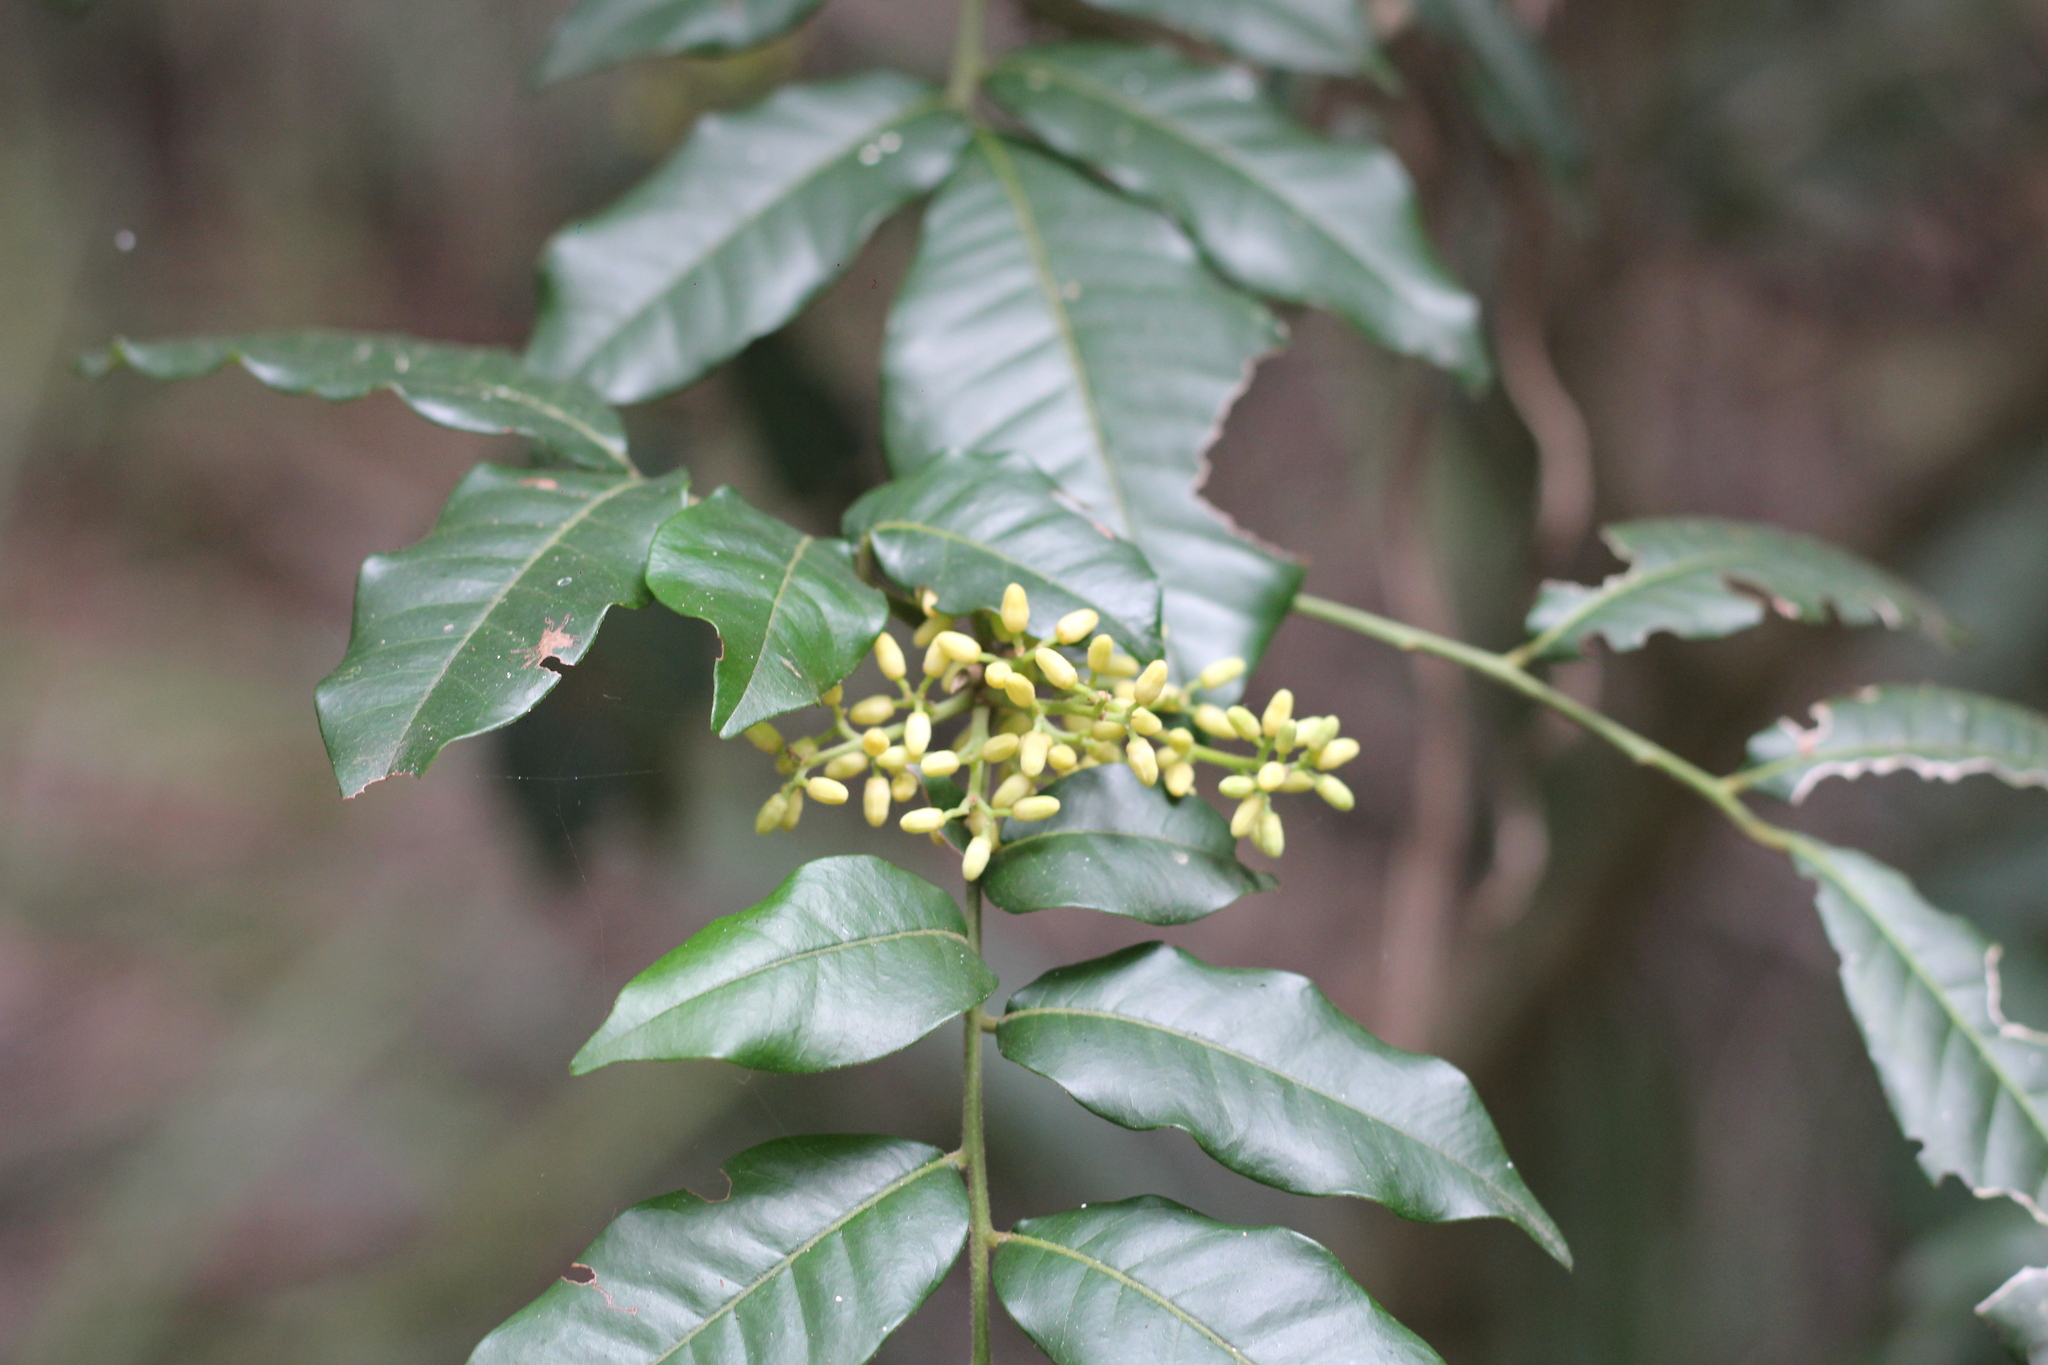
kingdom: Plantae
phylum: Tracheophyta
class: Magnoliopsida
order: Sapindales
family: Meliaceae
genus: Trichilia
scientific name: Trichilia catigua
